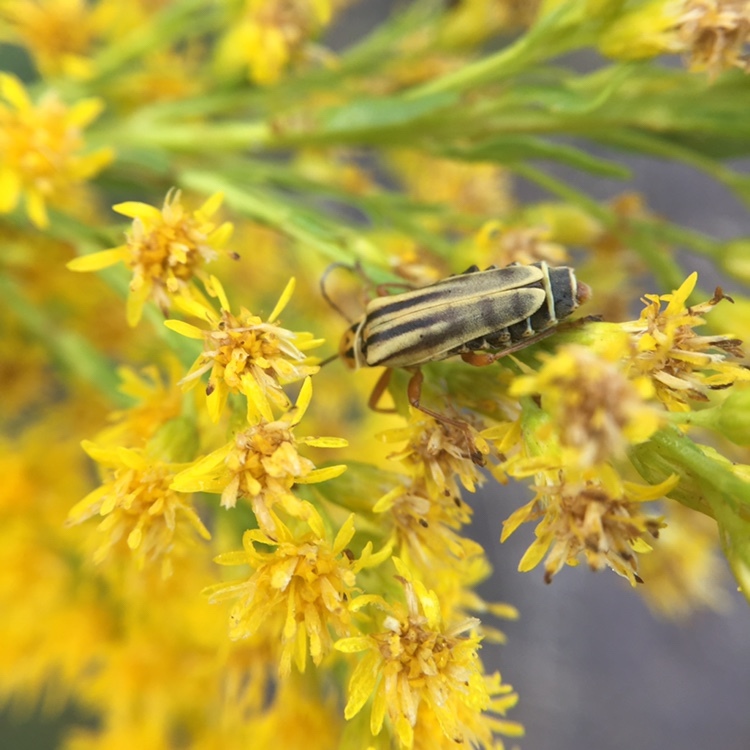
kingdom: Animalia
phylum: Arthropoda
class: Insecta
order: Coleoptera
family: Cantharidae
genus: Chauliognathus
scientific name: Chauliognathus
